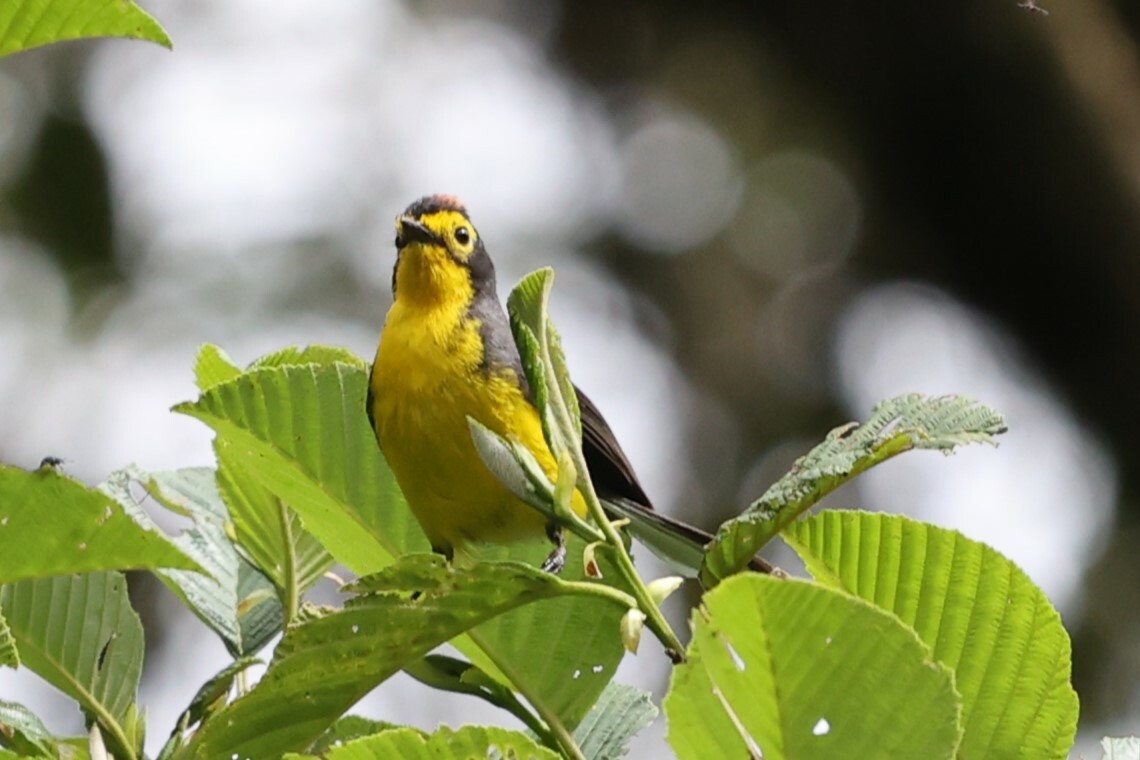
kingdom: Animalia
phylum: Chordata
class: Aves
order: Passeriformes
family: Parulidae
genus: Myioborus
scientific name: Myioborus melanocephalus
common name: Spectacled whitestart
